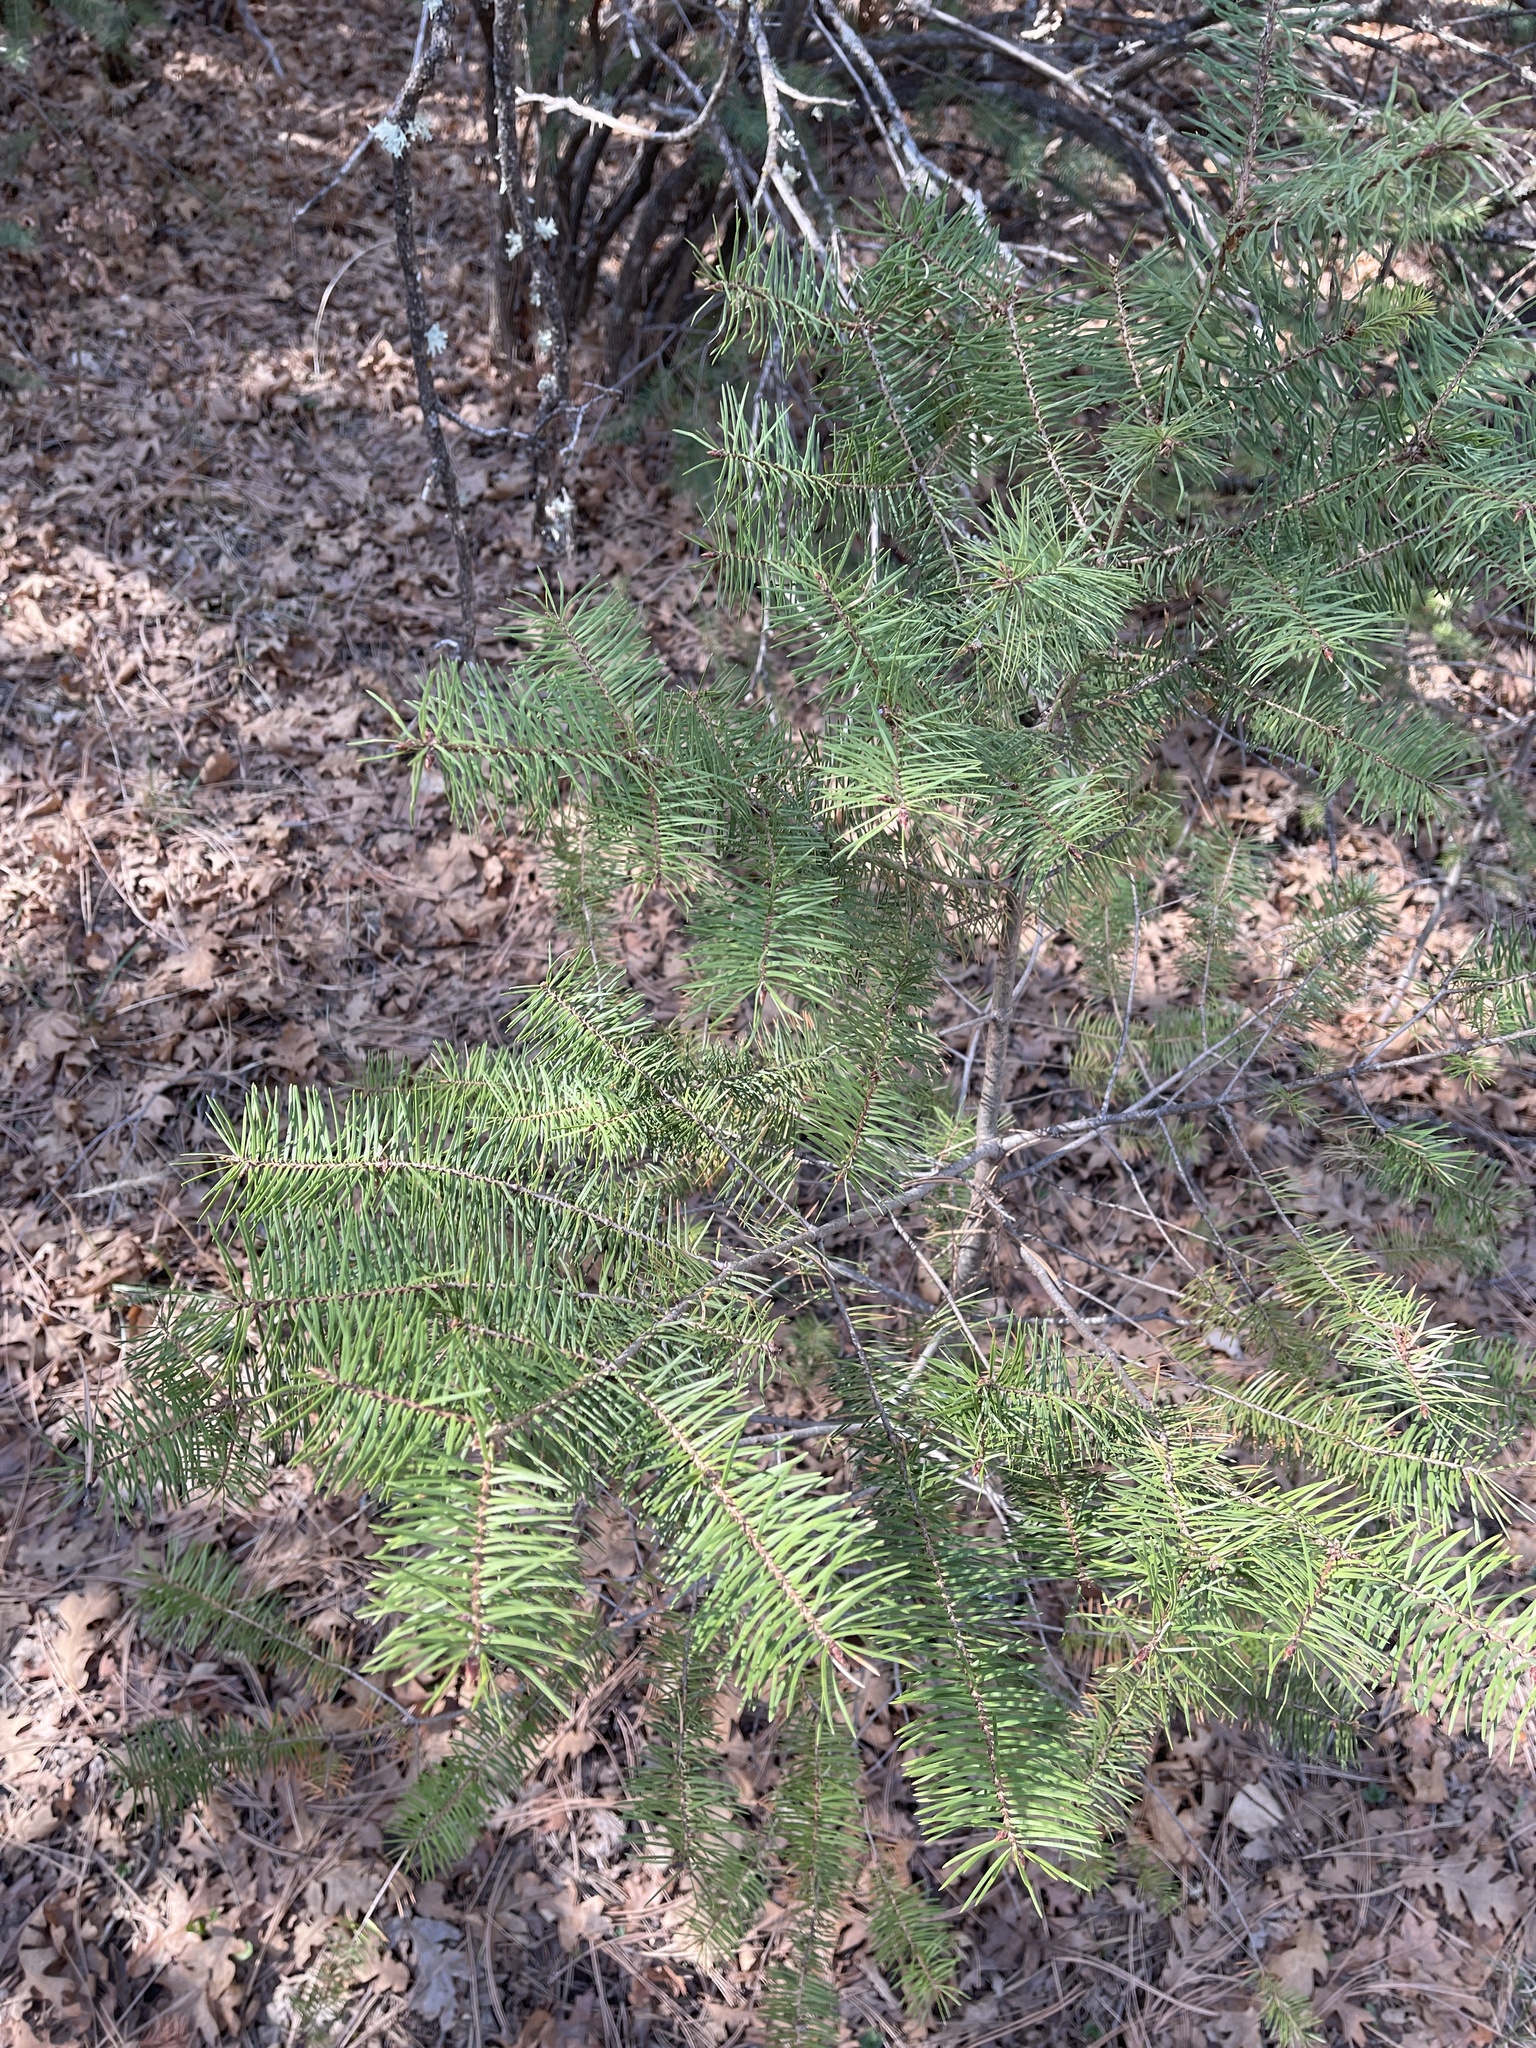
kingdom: Plantae
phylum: Tracheophyta
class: Pinopsida
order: Pinales
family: Pinaceae
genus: Abies
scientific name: Abies concolor
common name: Colorado fir
